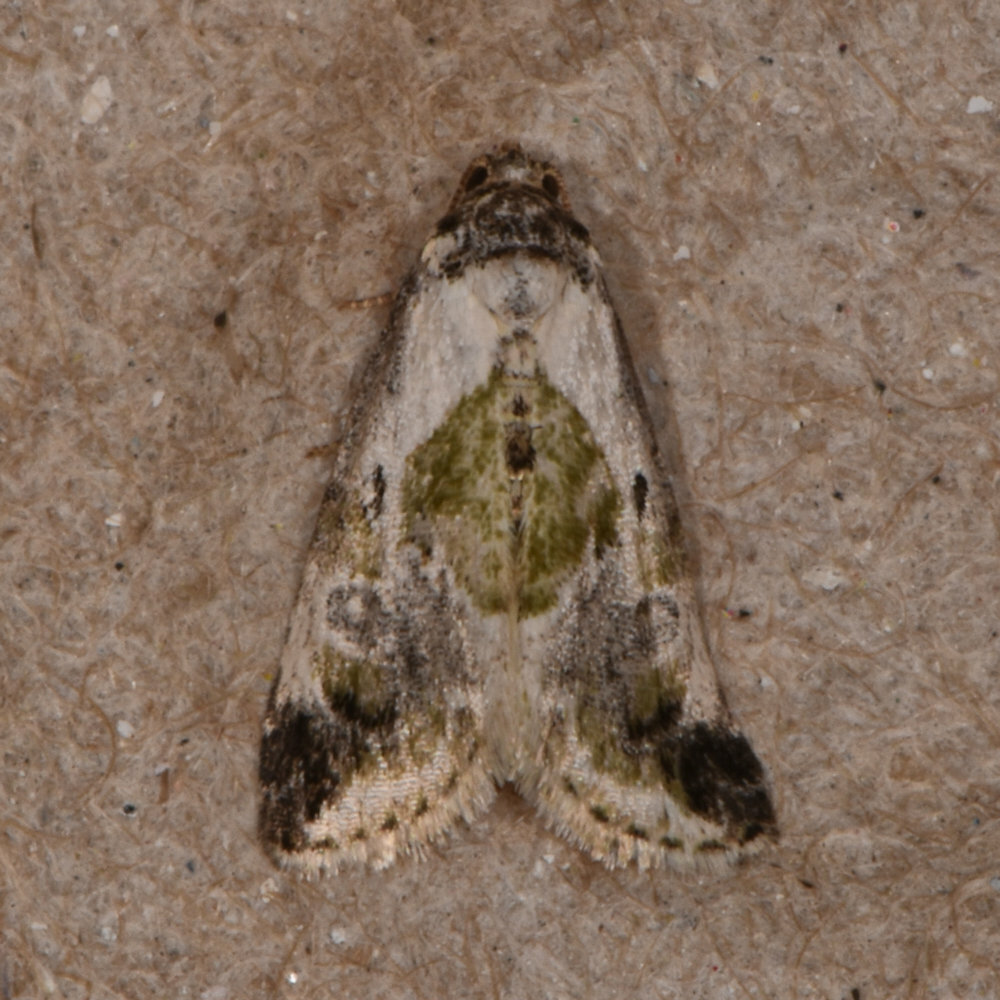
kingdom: Animalia
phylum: Arthropoda
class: Insecta
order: Lepidoptera
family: Noctuidae
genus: Maliattha
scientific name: Maliattha synochitis
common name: Black-dotted glyph
